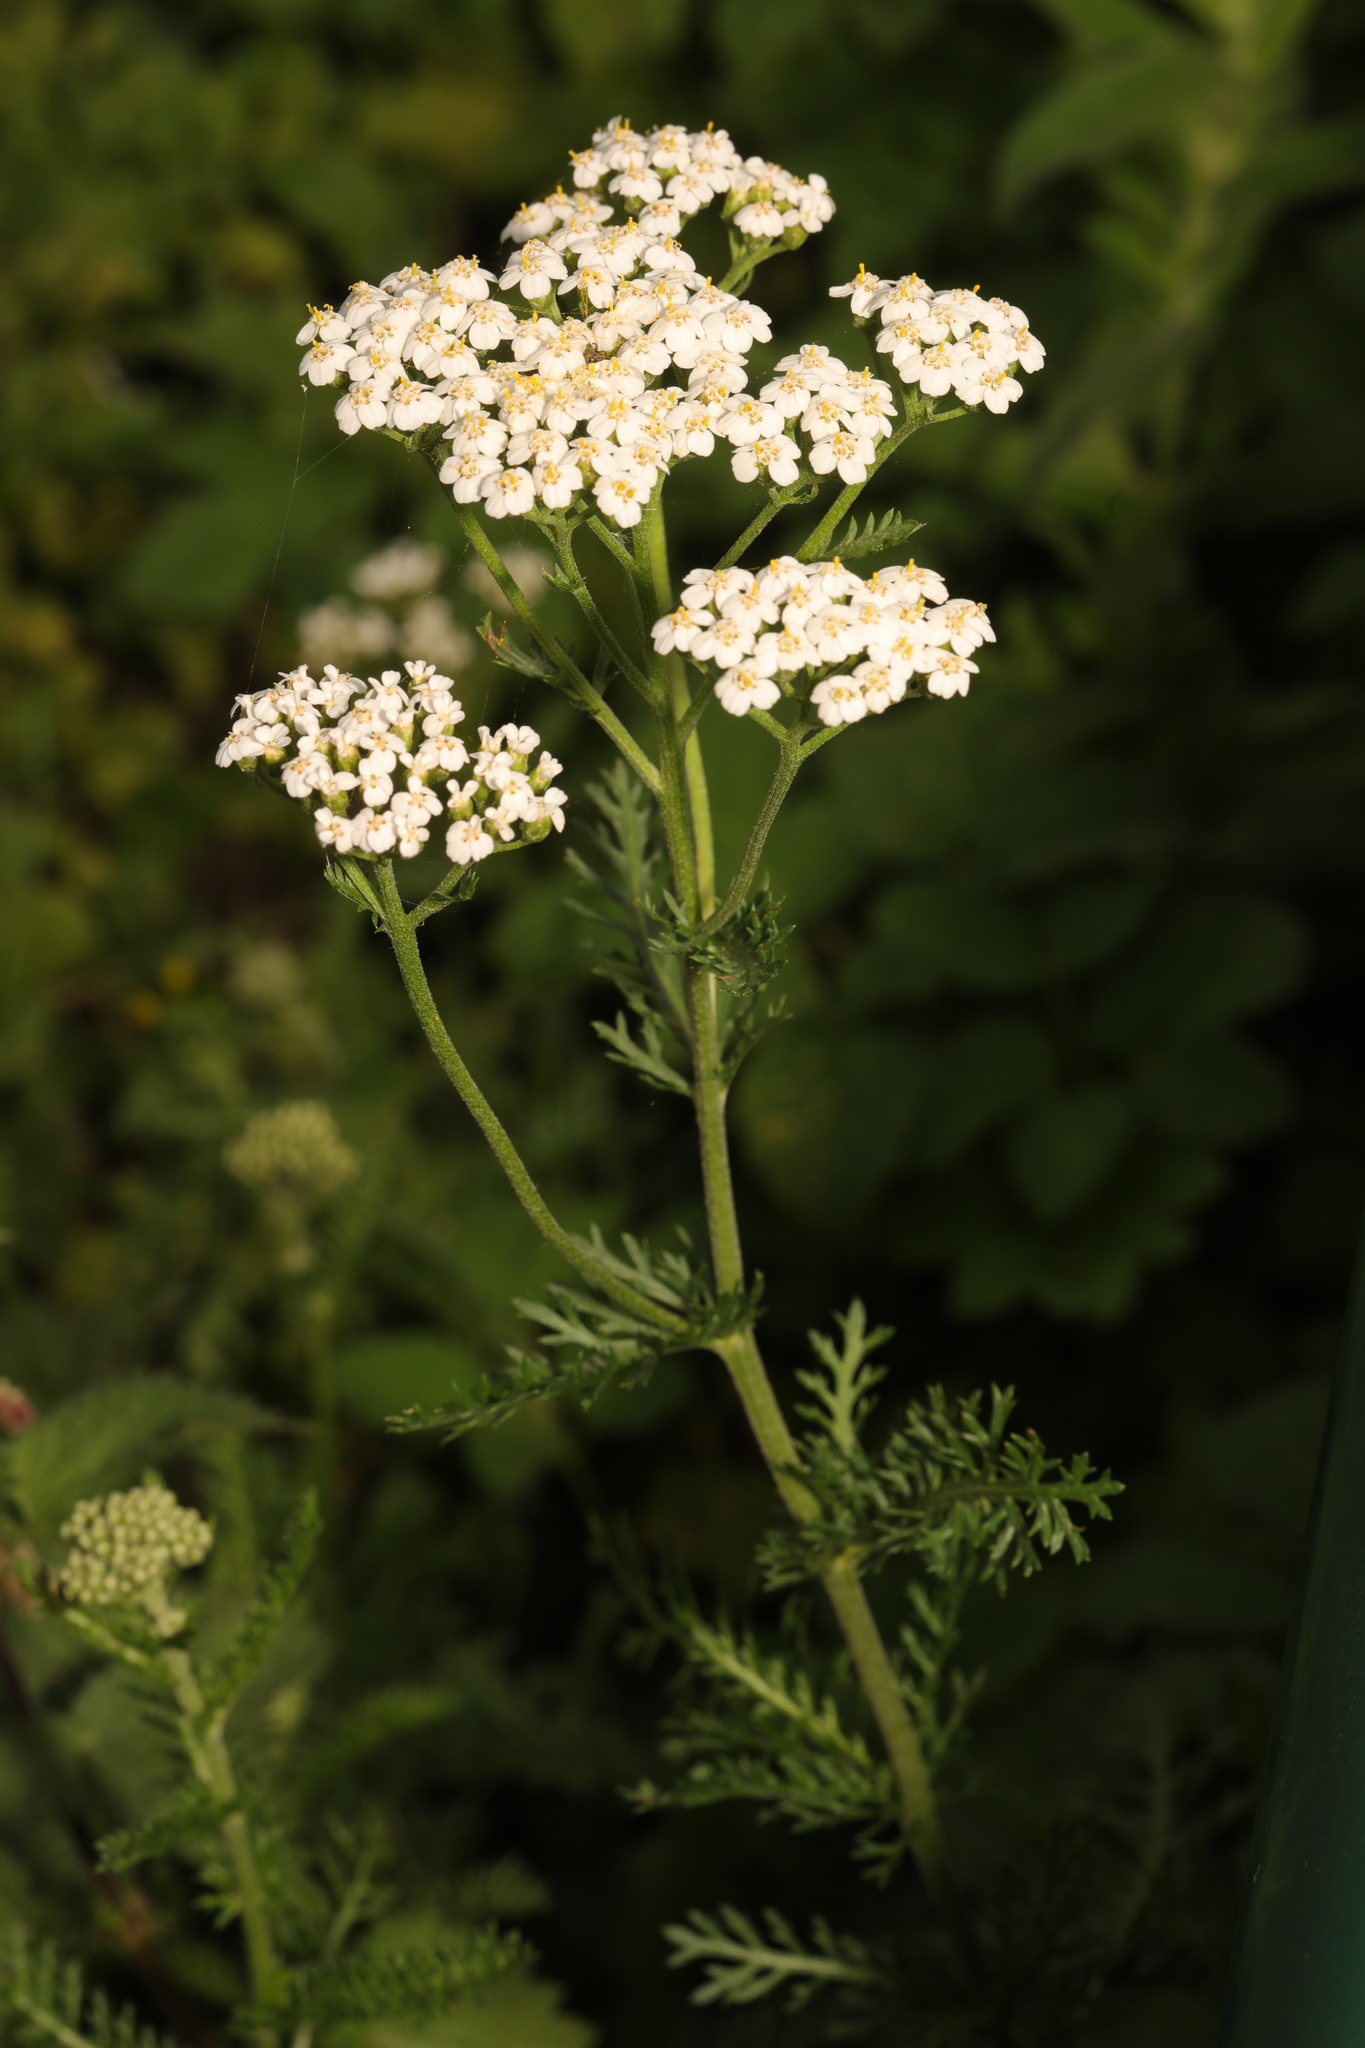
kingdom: Plantae
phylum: Tracheophyta
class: Magnoliopsida
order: Asterales
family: Asteraceae
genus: Achillea
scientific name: Achillea millefolium
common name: Yarrow
